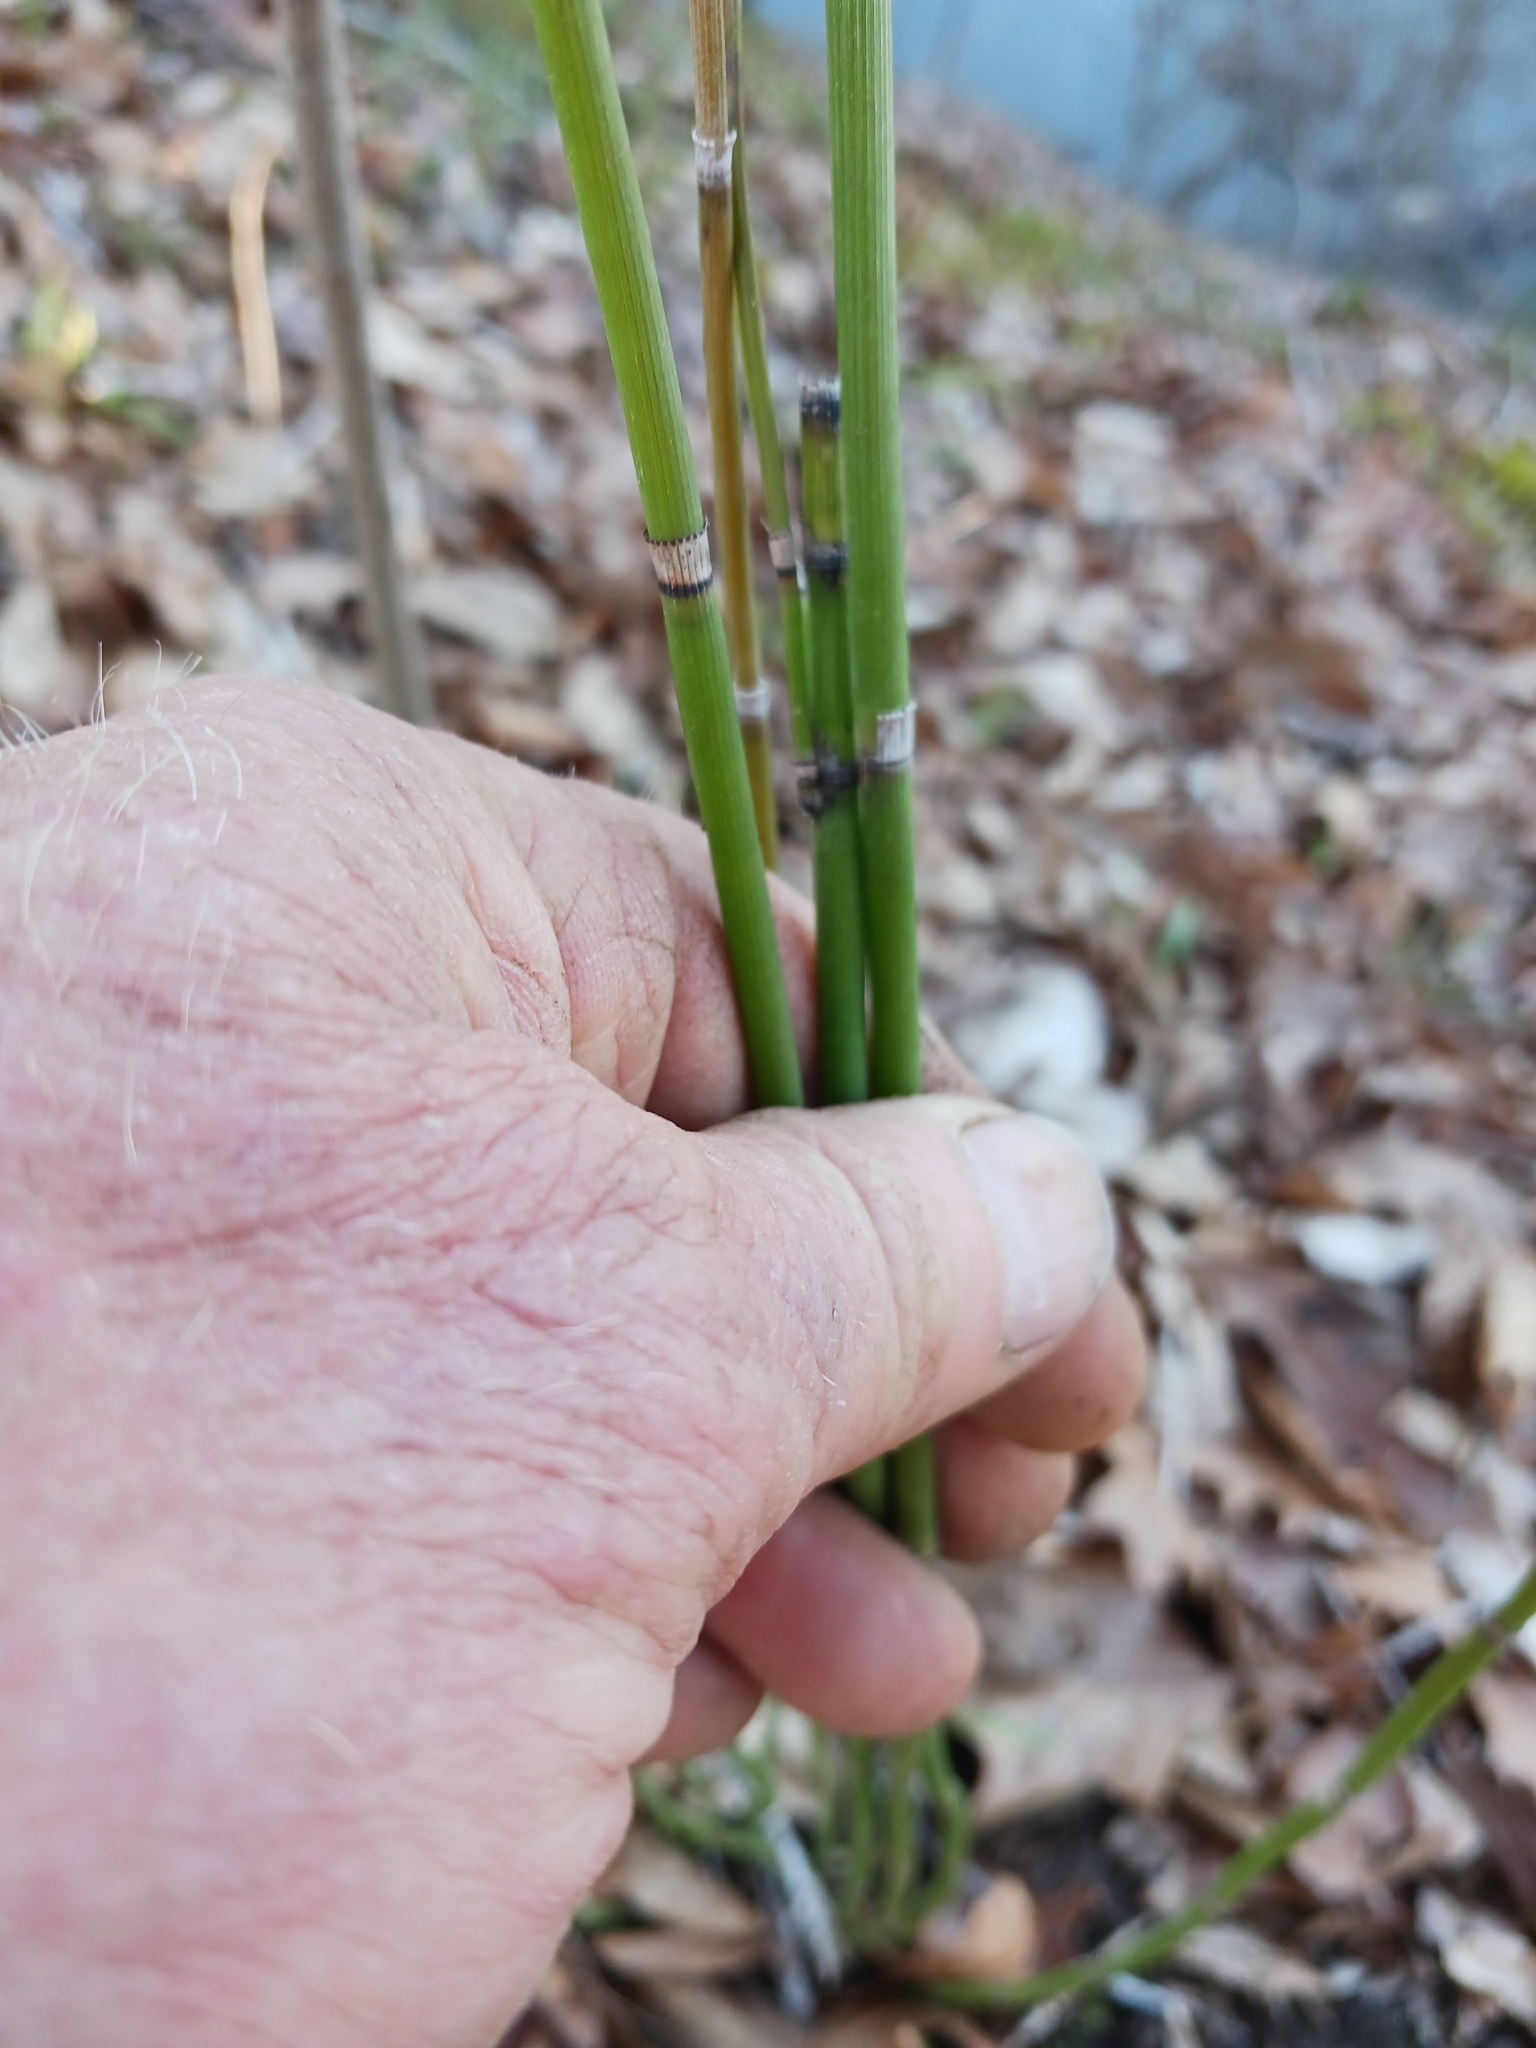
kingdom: Plantae
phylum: Tracheophyta
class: Polypodiopsida
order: Equisetales
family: Equisetaceae
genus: Equisetum
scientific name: Equisetum hyemale
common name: Rough horsetail
